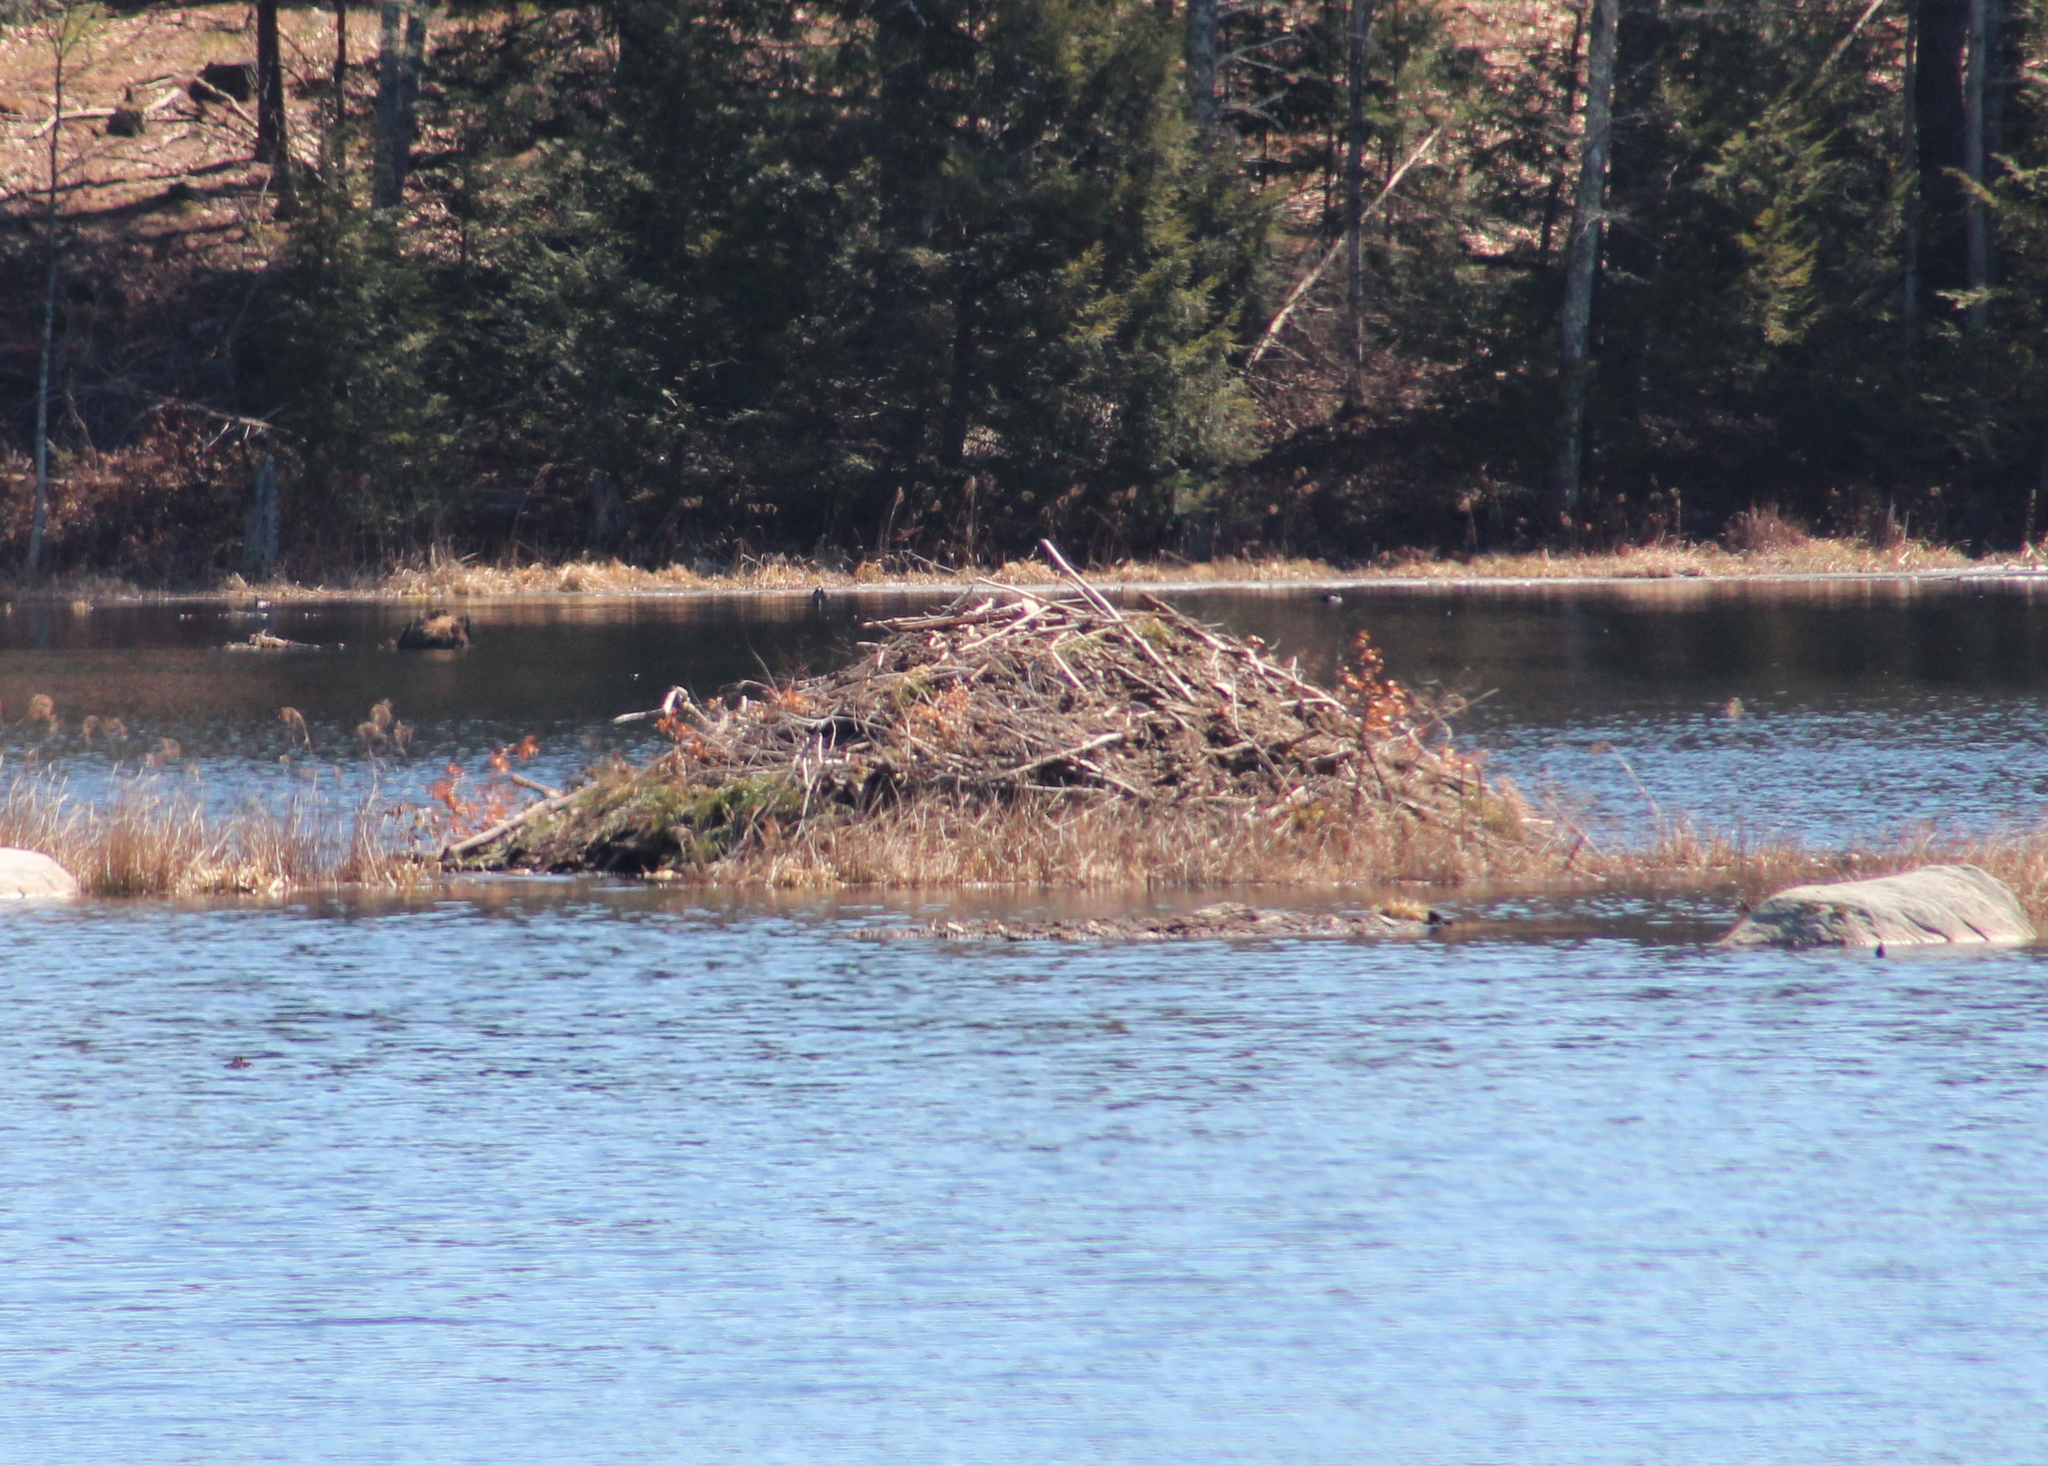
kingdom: Animalia
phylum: Chordata
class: Mammalia
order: Rodentia
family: Castoridae
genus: Castor
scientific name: Castor canadensis
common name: American beaver
